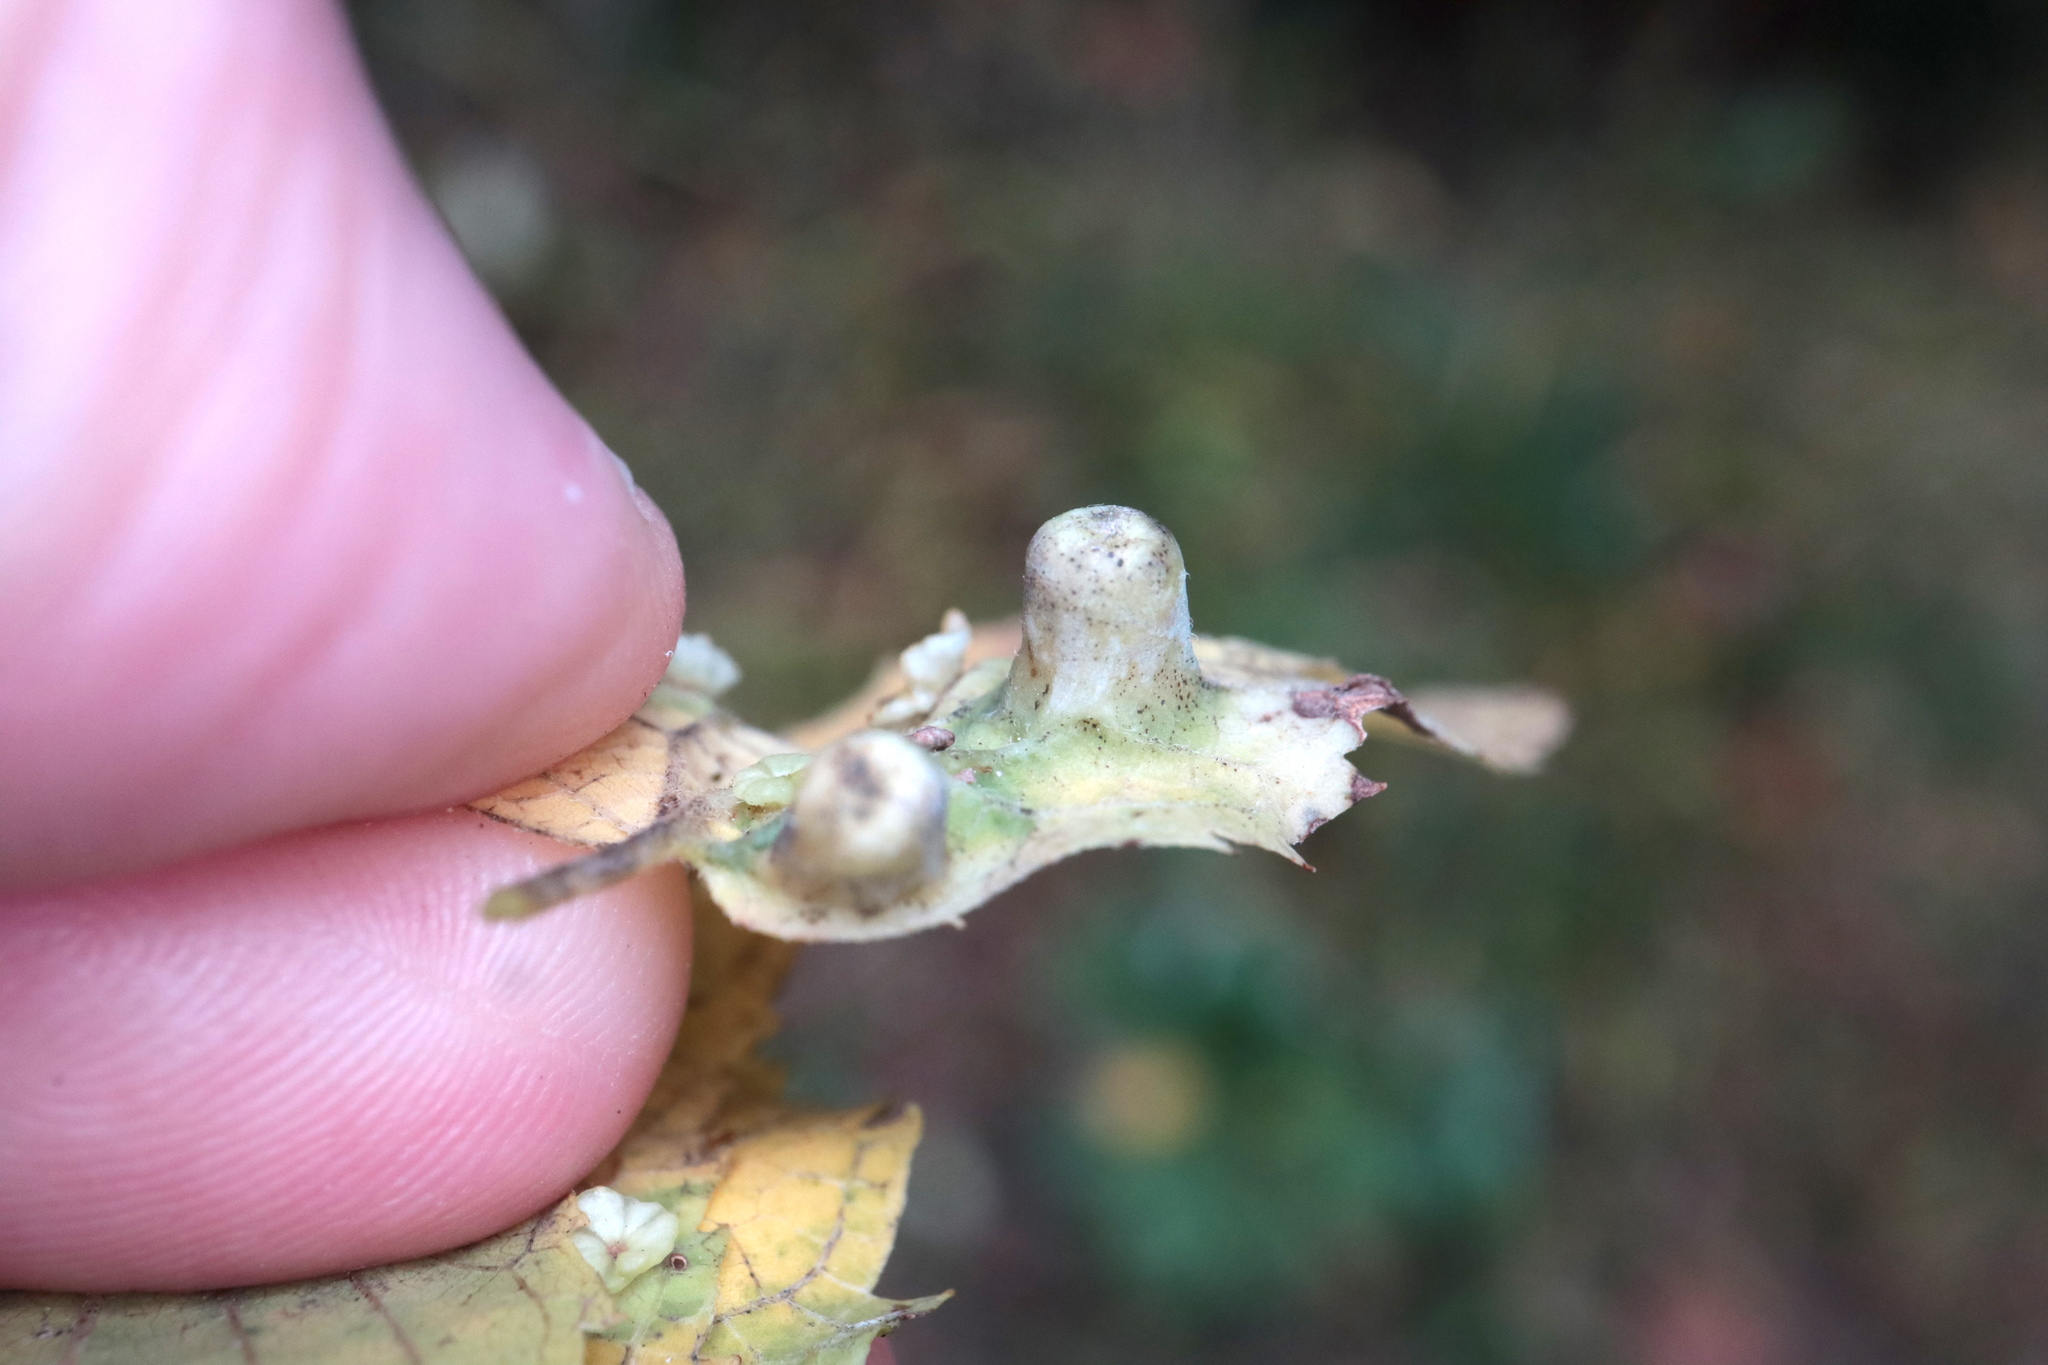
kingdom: Animalia
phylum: Arthropoda
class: Insecta
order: Hemiptera
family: Aphalaridae
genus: Pachypsylla
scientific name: Pachypsylla celtidismamma
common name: Hackberry nipplegall psyllid
